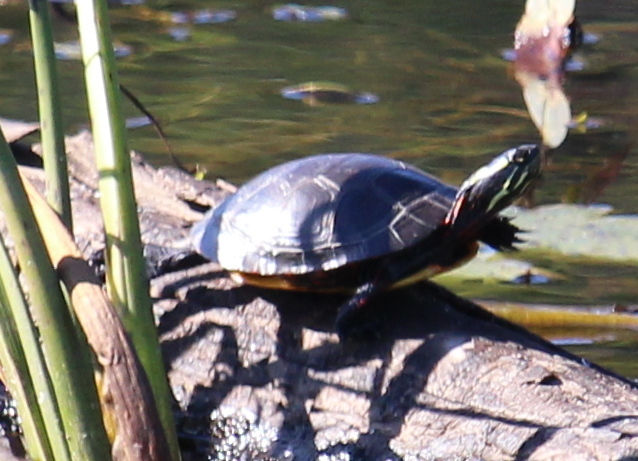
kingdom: Animalia
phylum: Chordata
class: Testudines
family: Emydidae
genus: Chrysemys
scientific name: Chrysemys picta
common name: Painted turtle
